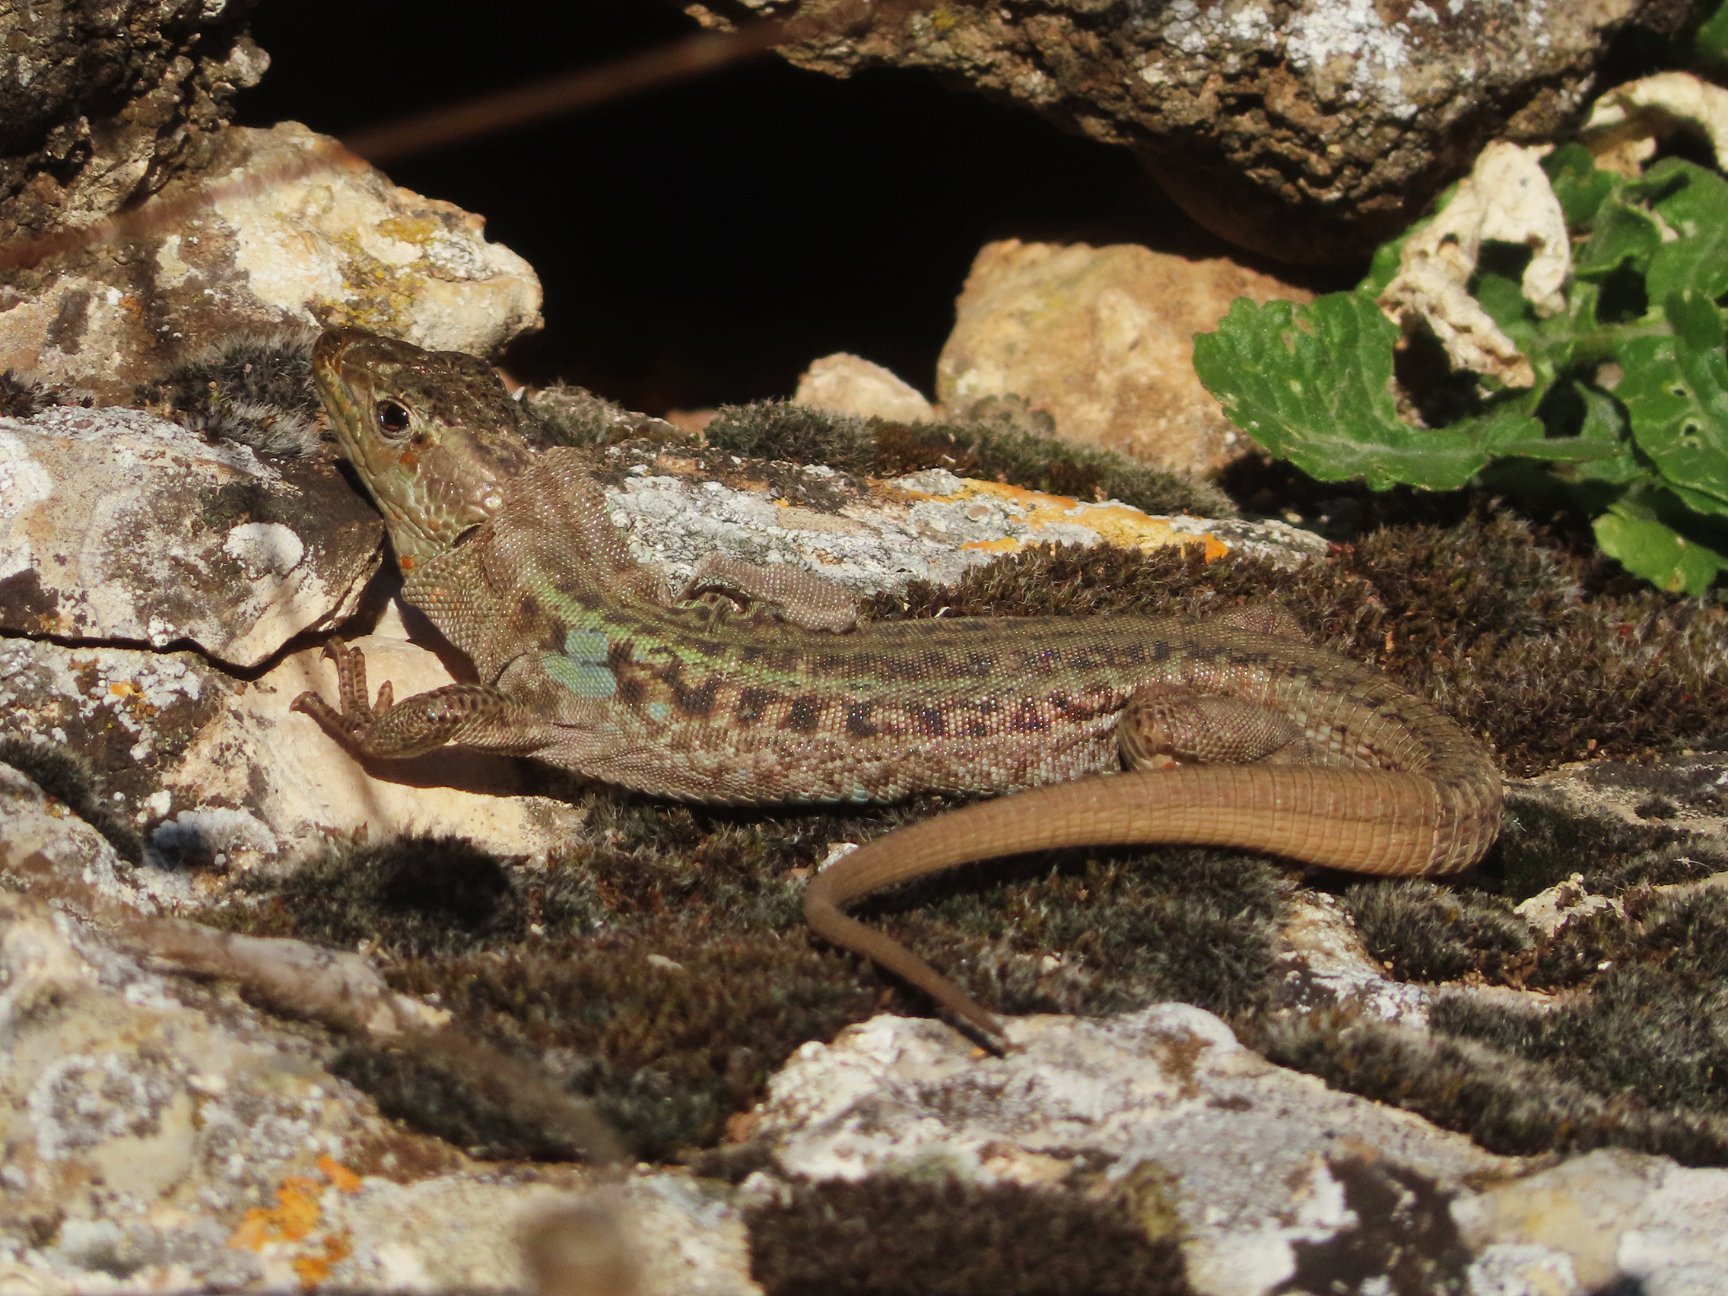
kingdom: Animalia
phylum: Chordata
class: Squamata
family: Lacertidae
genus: Podarcis
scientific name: Podarcis peloponnesiacus
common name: Peloponnese wall lizard
